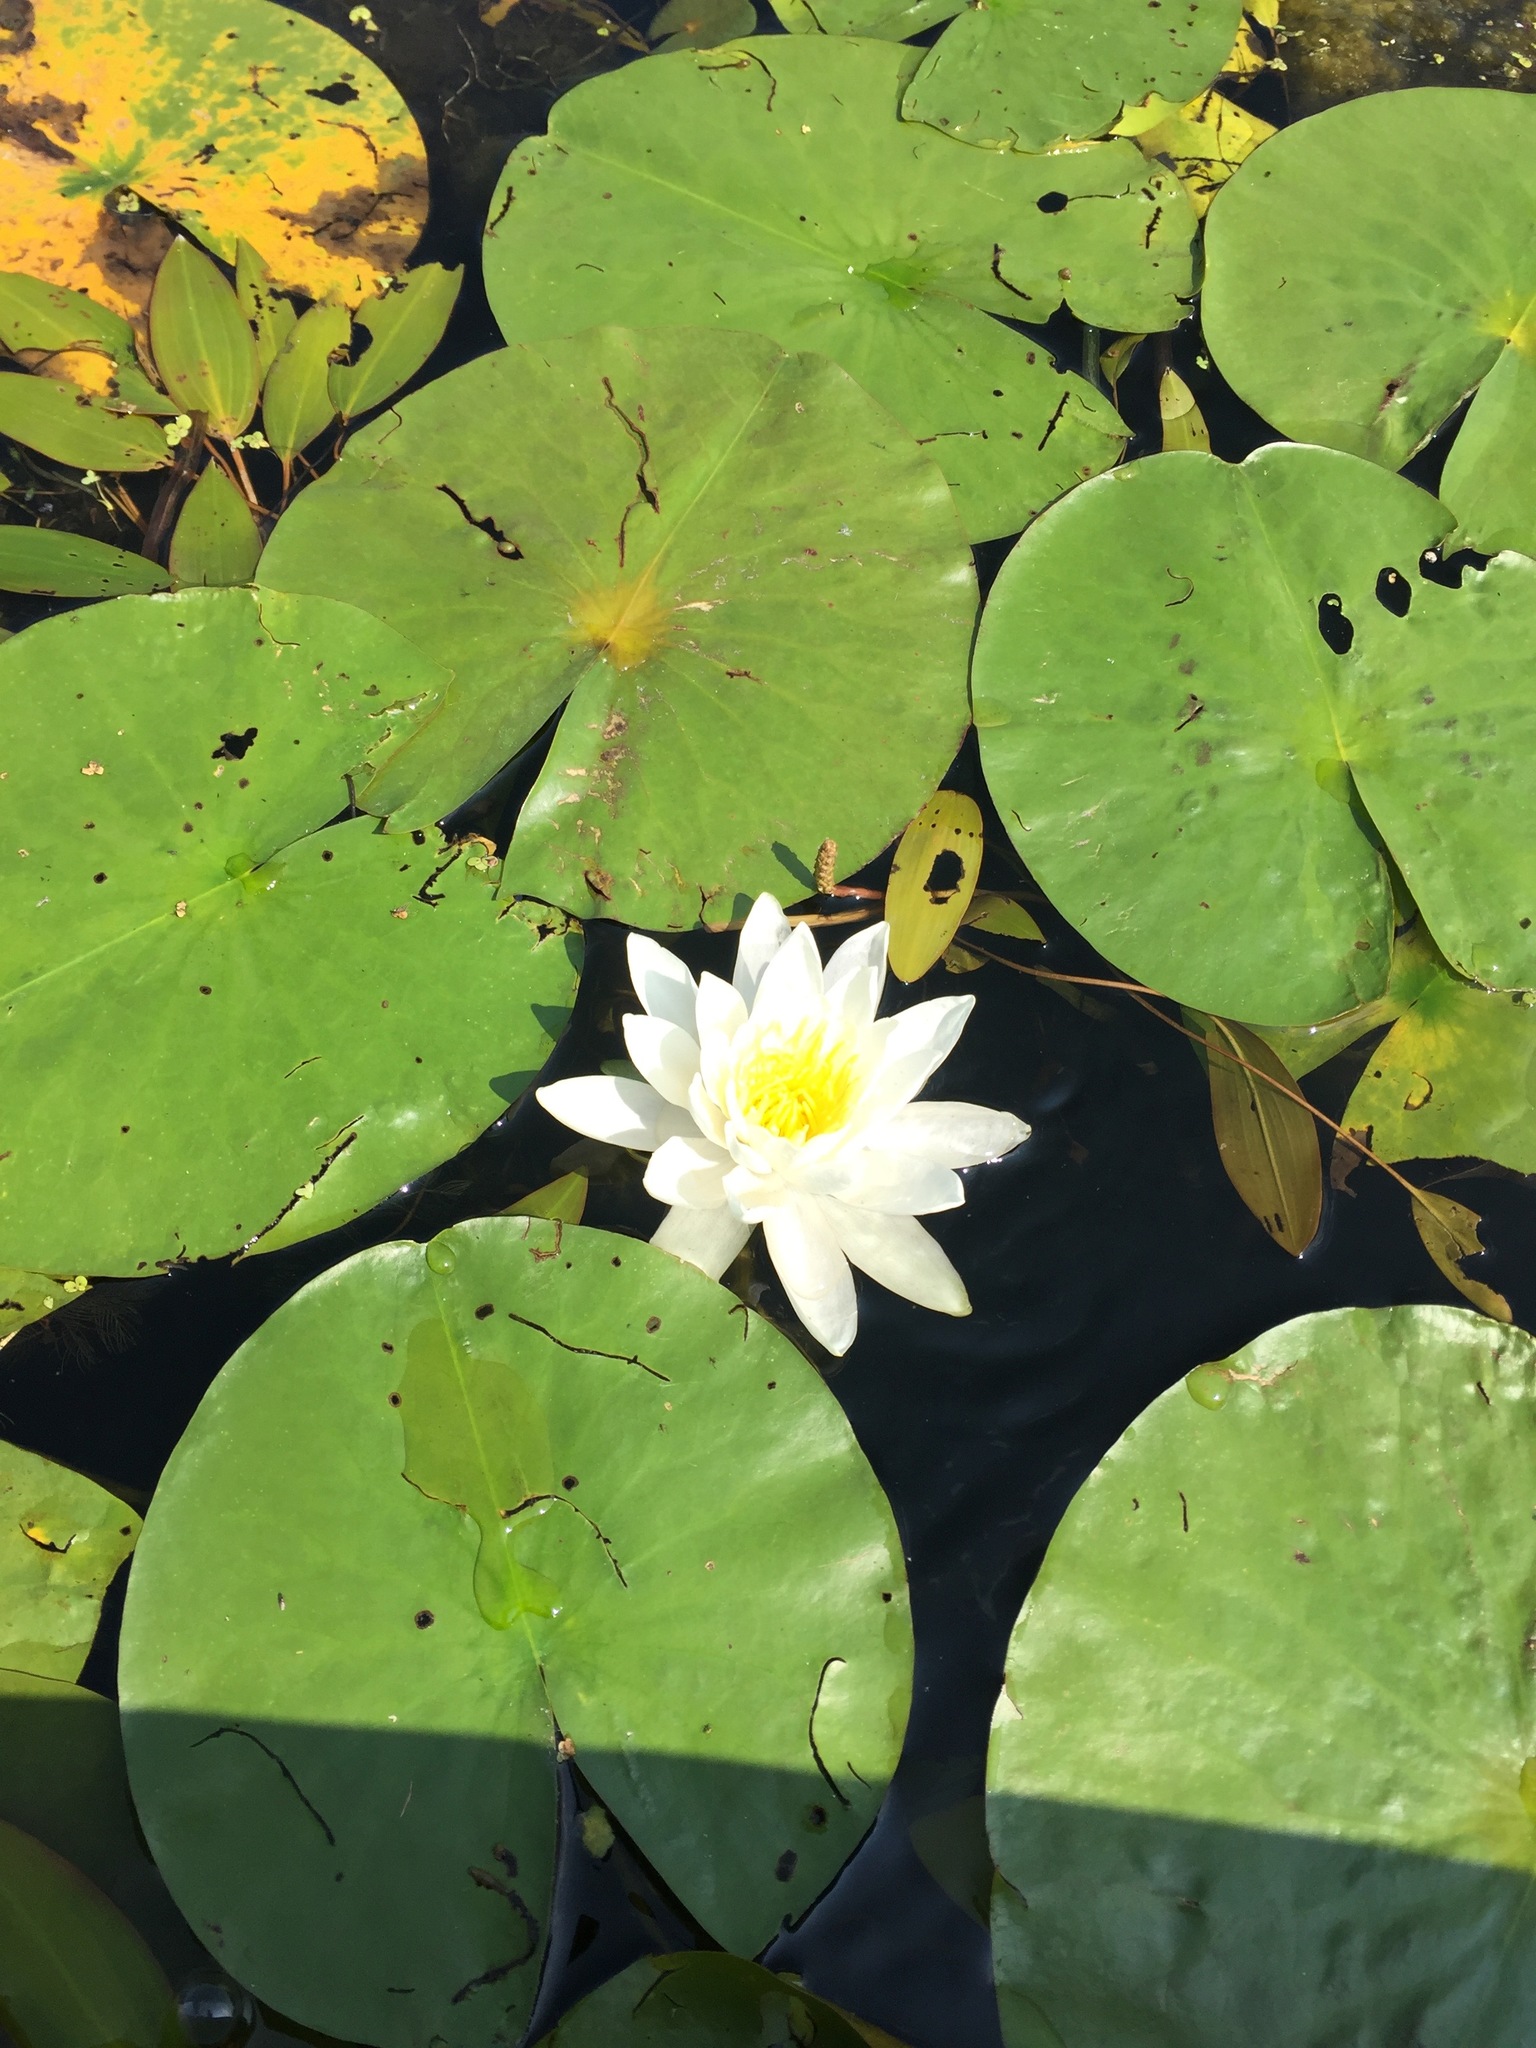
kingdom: Plantae
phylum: Tracheophyta
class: Magnoliopsida
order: Nymphaeales
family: Nymphaeaceae
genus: Nymphaea
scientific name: Nymphaea odorata
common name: Fragrant water-lily
